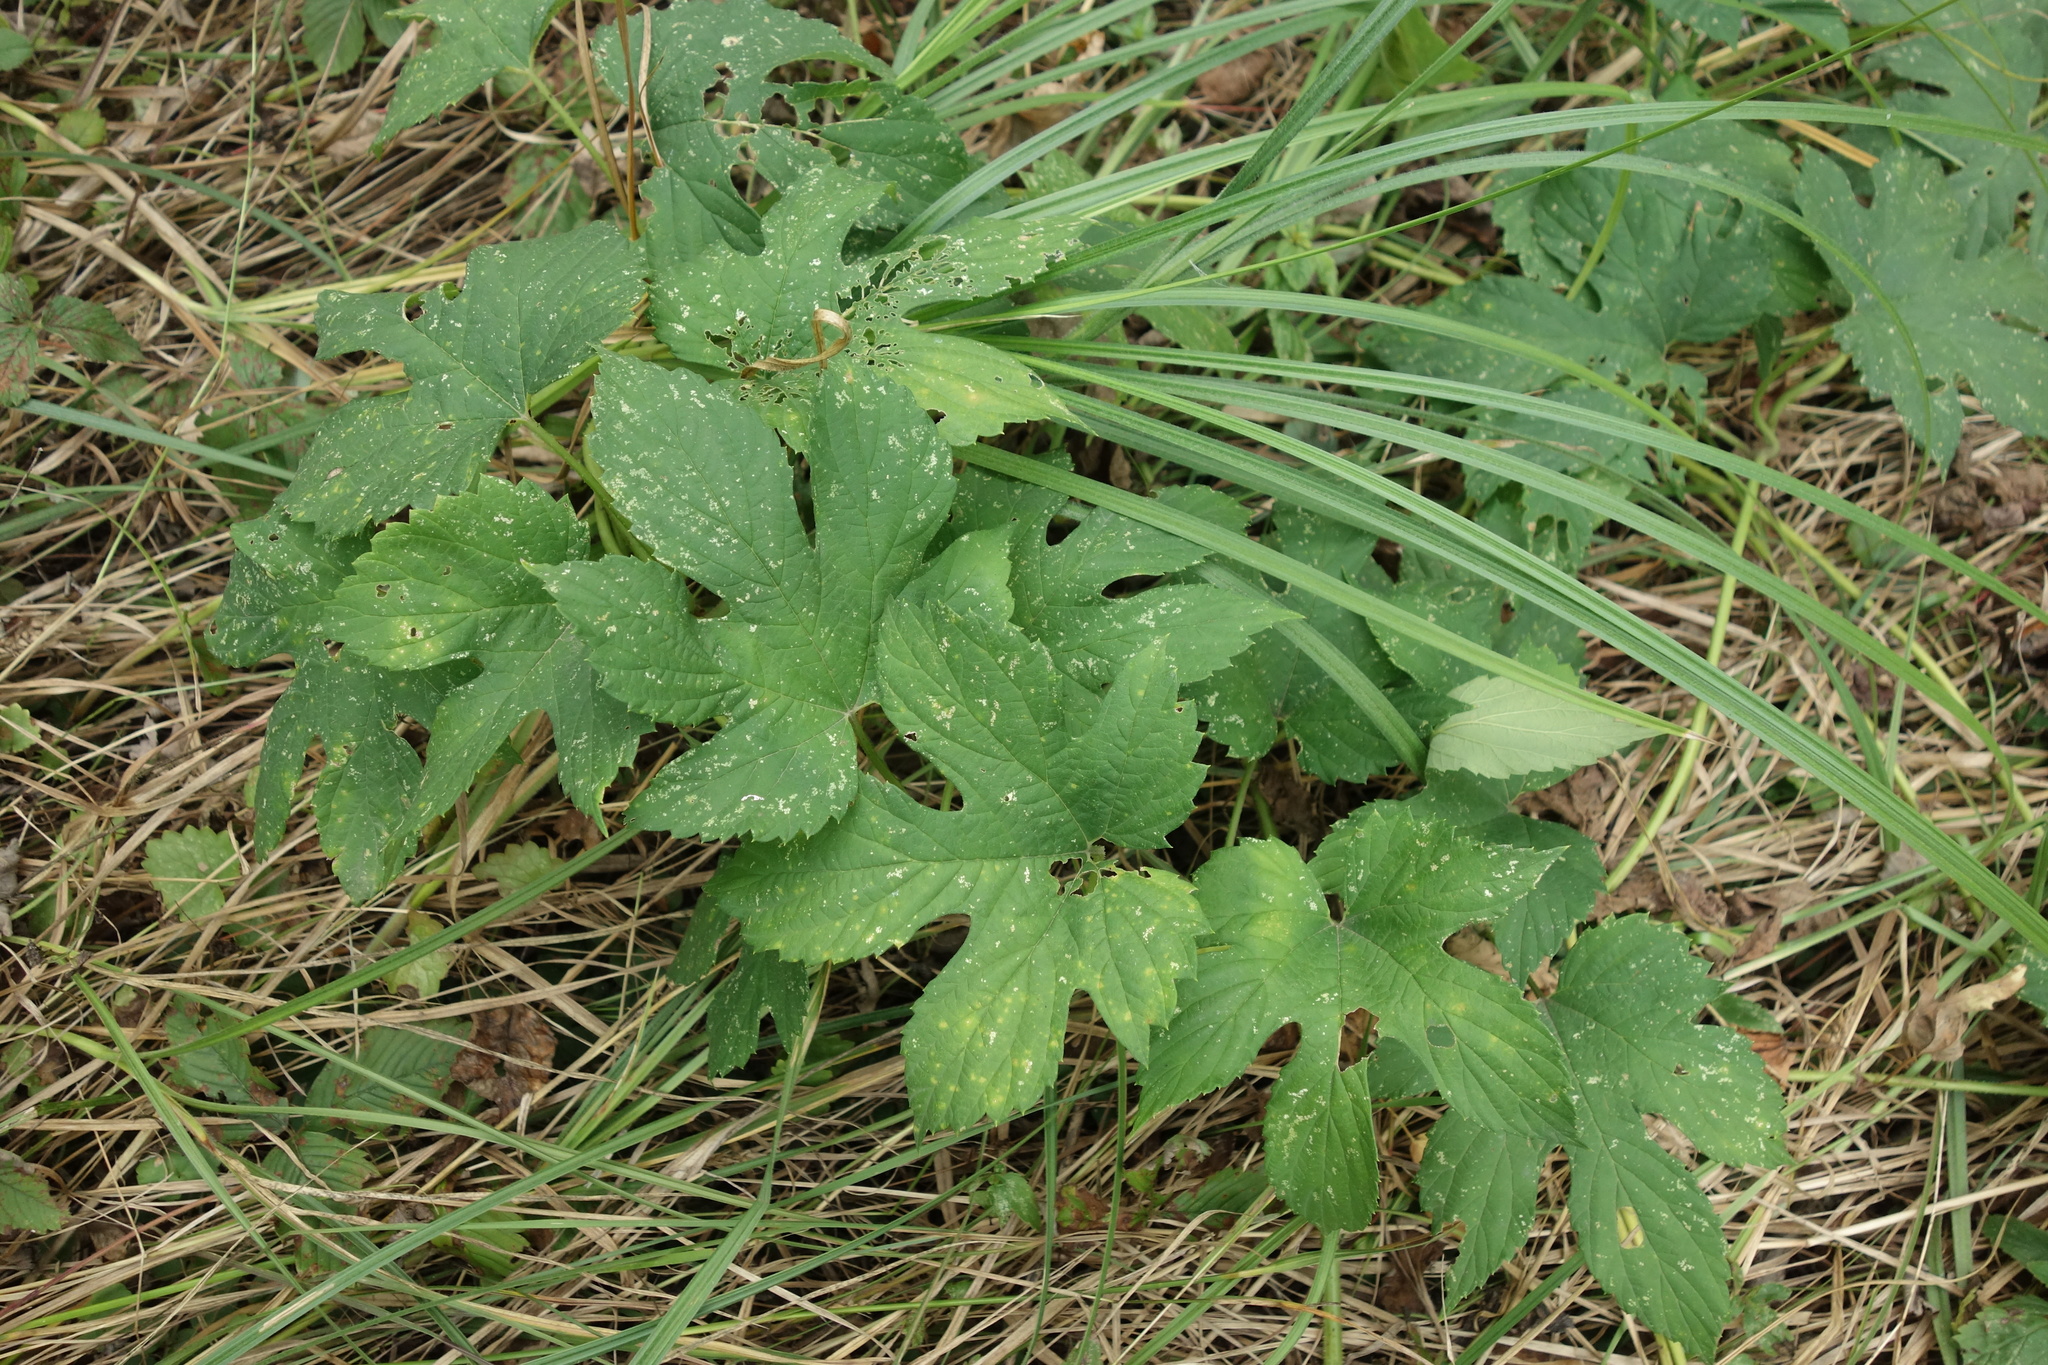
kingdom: Plantae
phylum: Tracheophyta
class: Magnoliopsida
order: Rosales
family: Cannabaceae
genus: Humulus
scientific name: Humulus lupulus
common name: Hop
